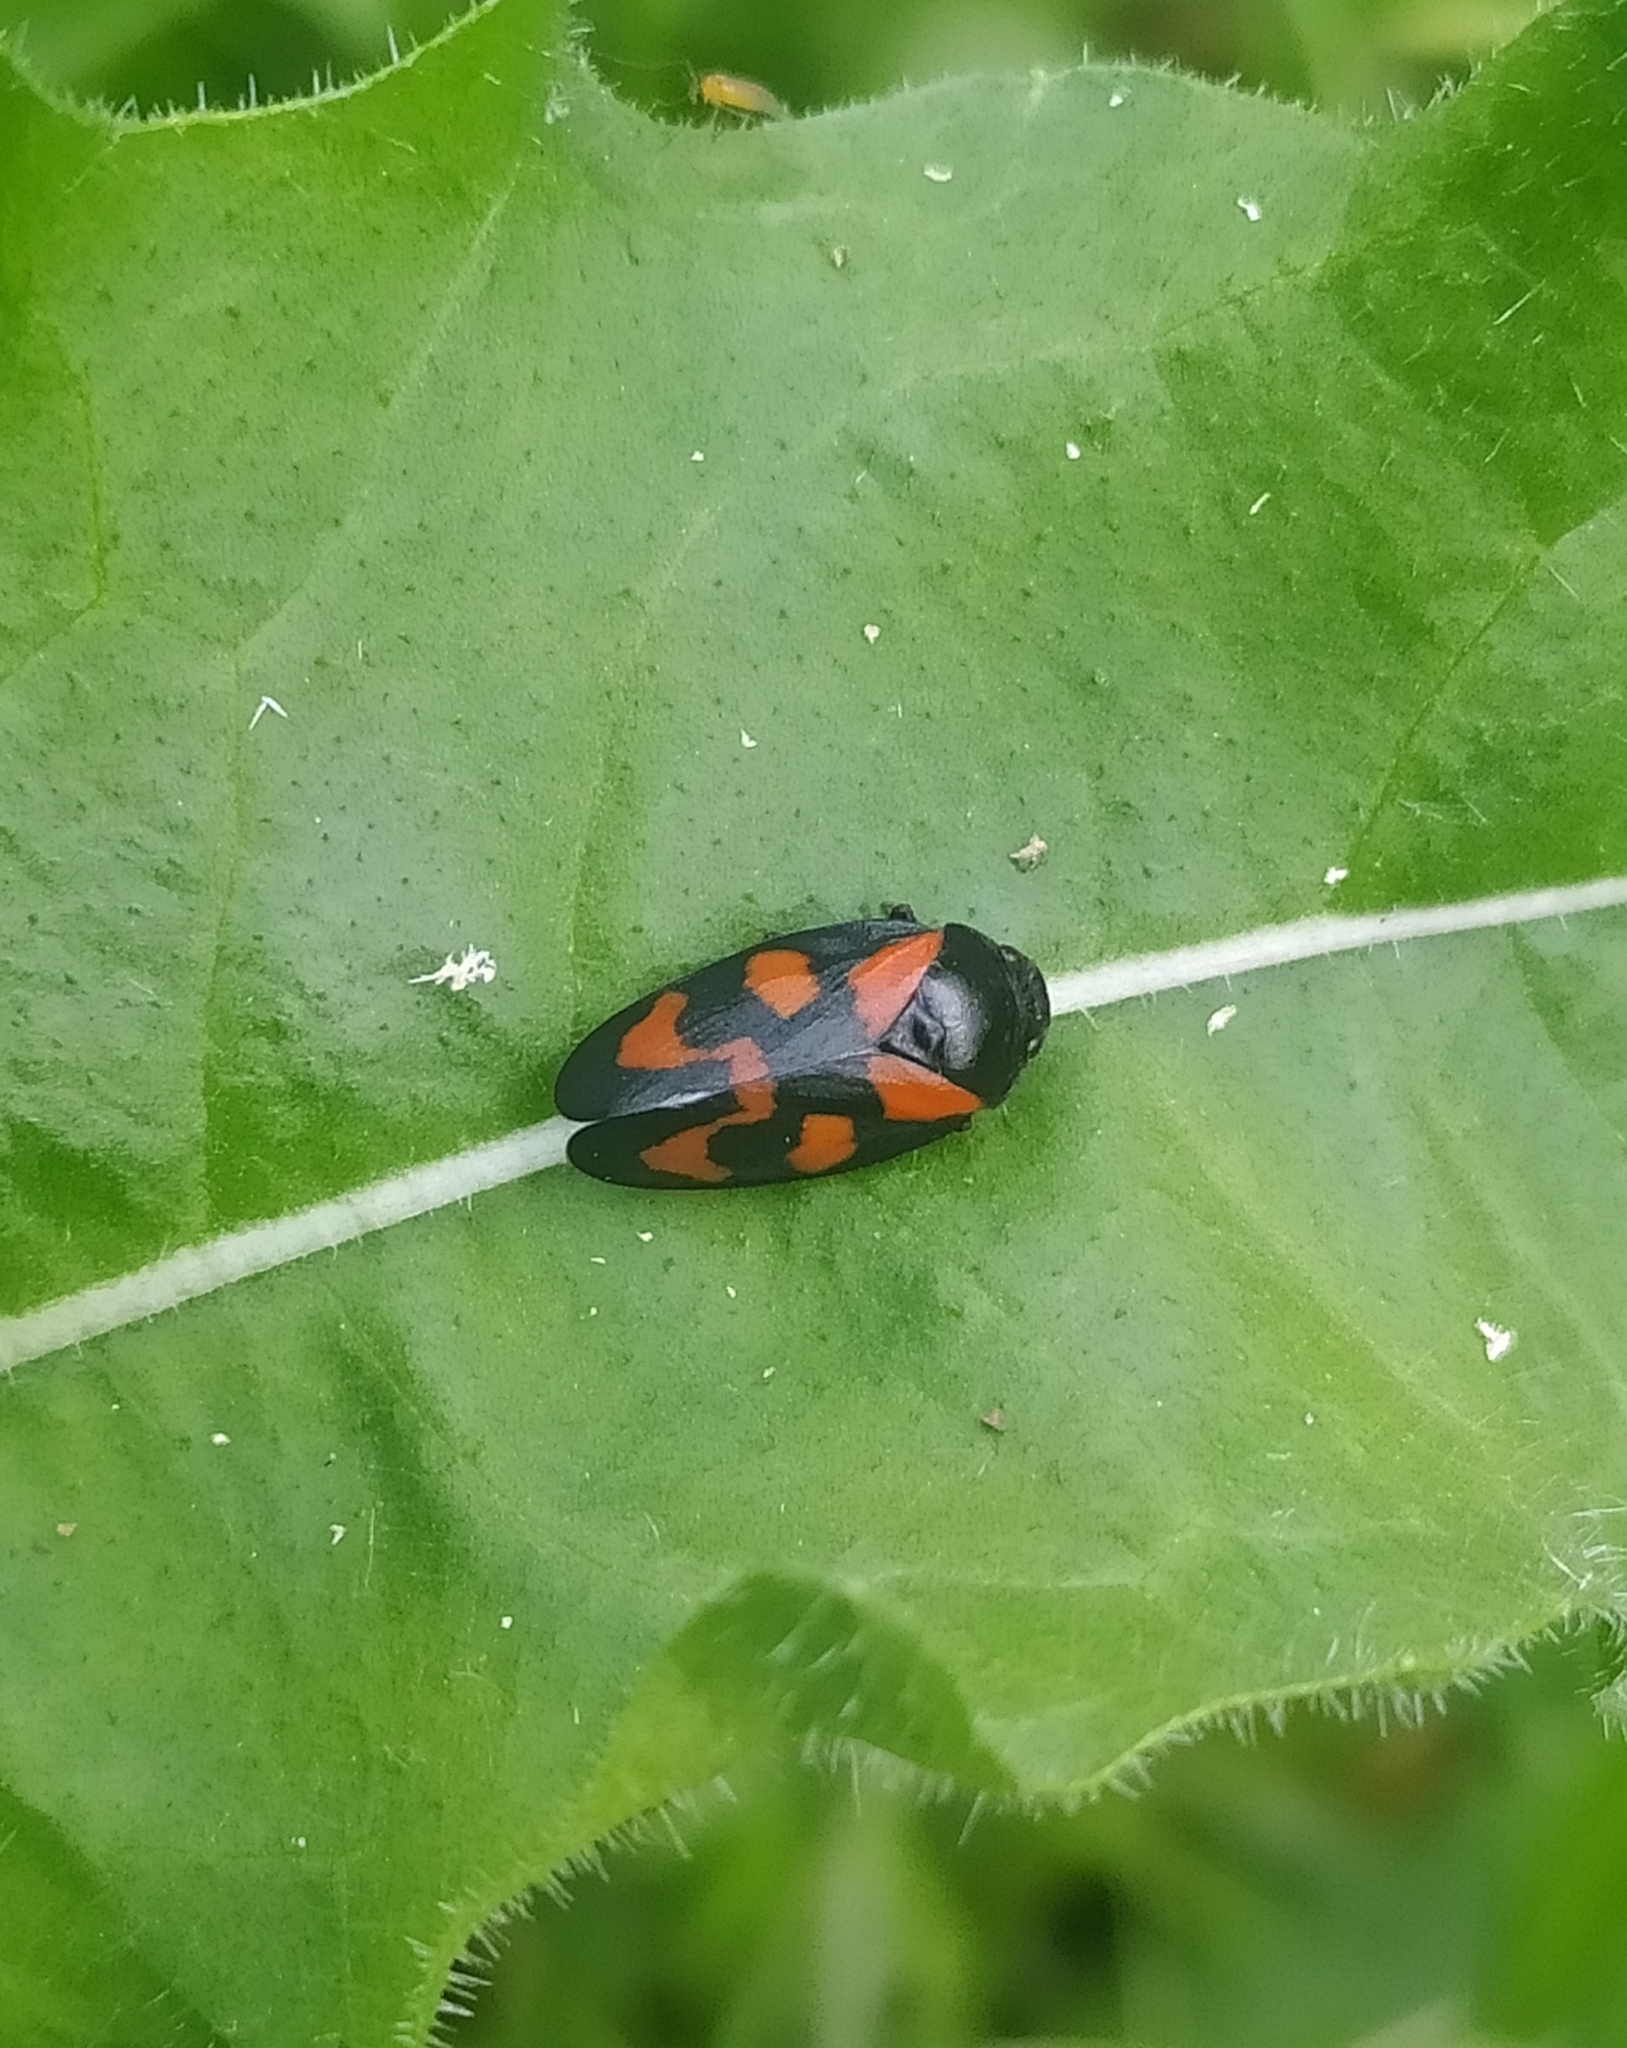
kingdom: Animalia
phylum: Arthropoda
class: Insecta
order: Hemiptera
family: Cercopidae
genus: Cercopis
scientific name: Cercopis vulnerata
